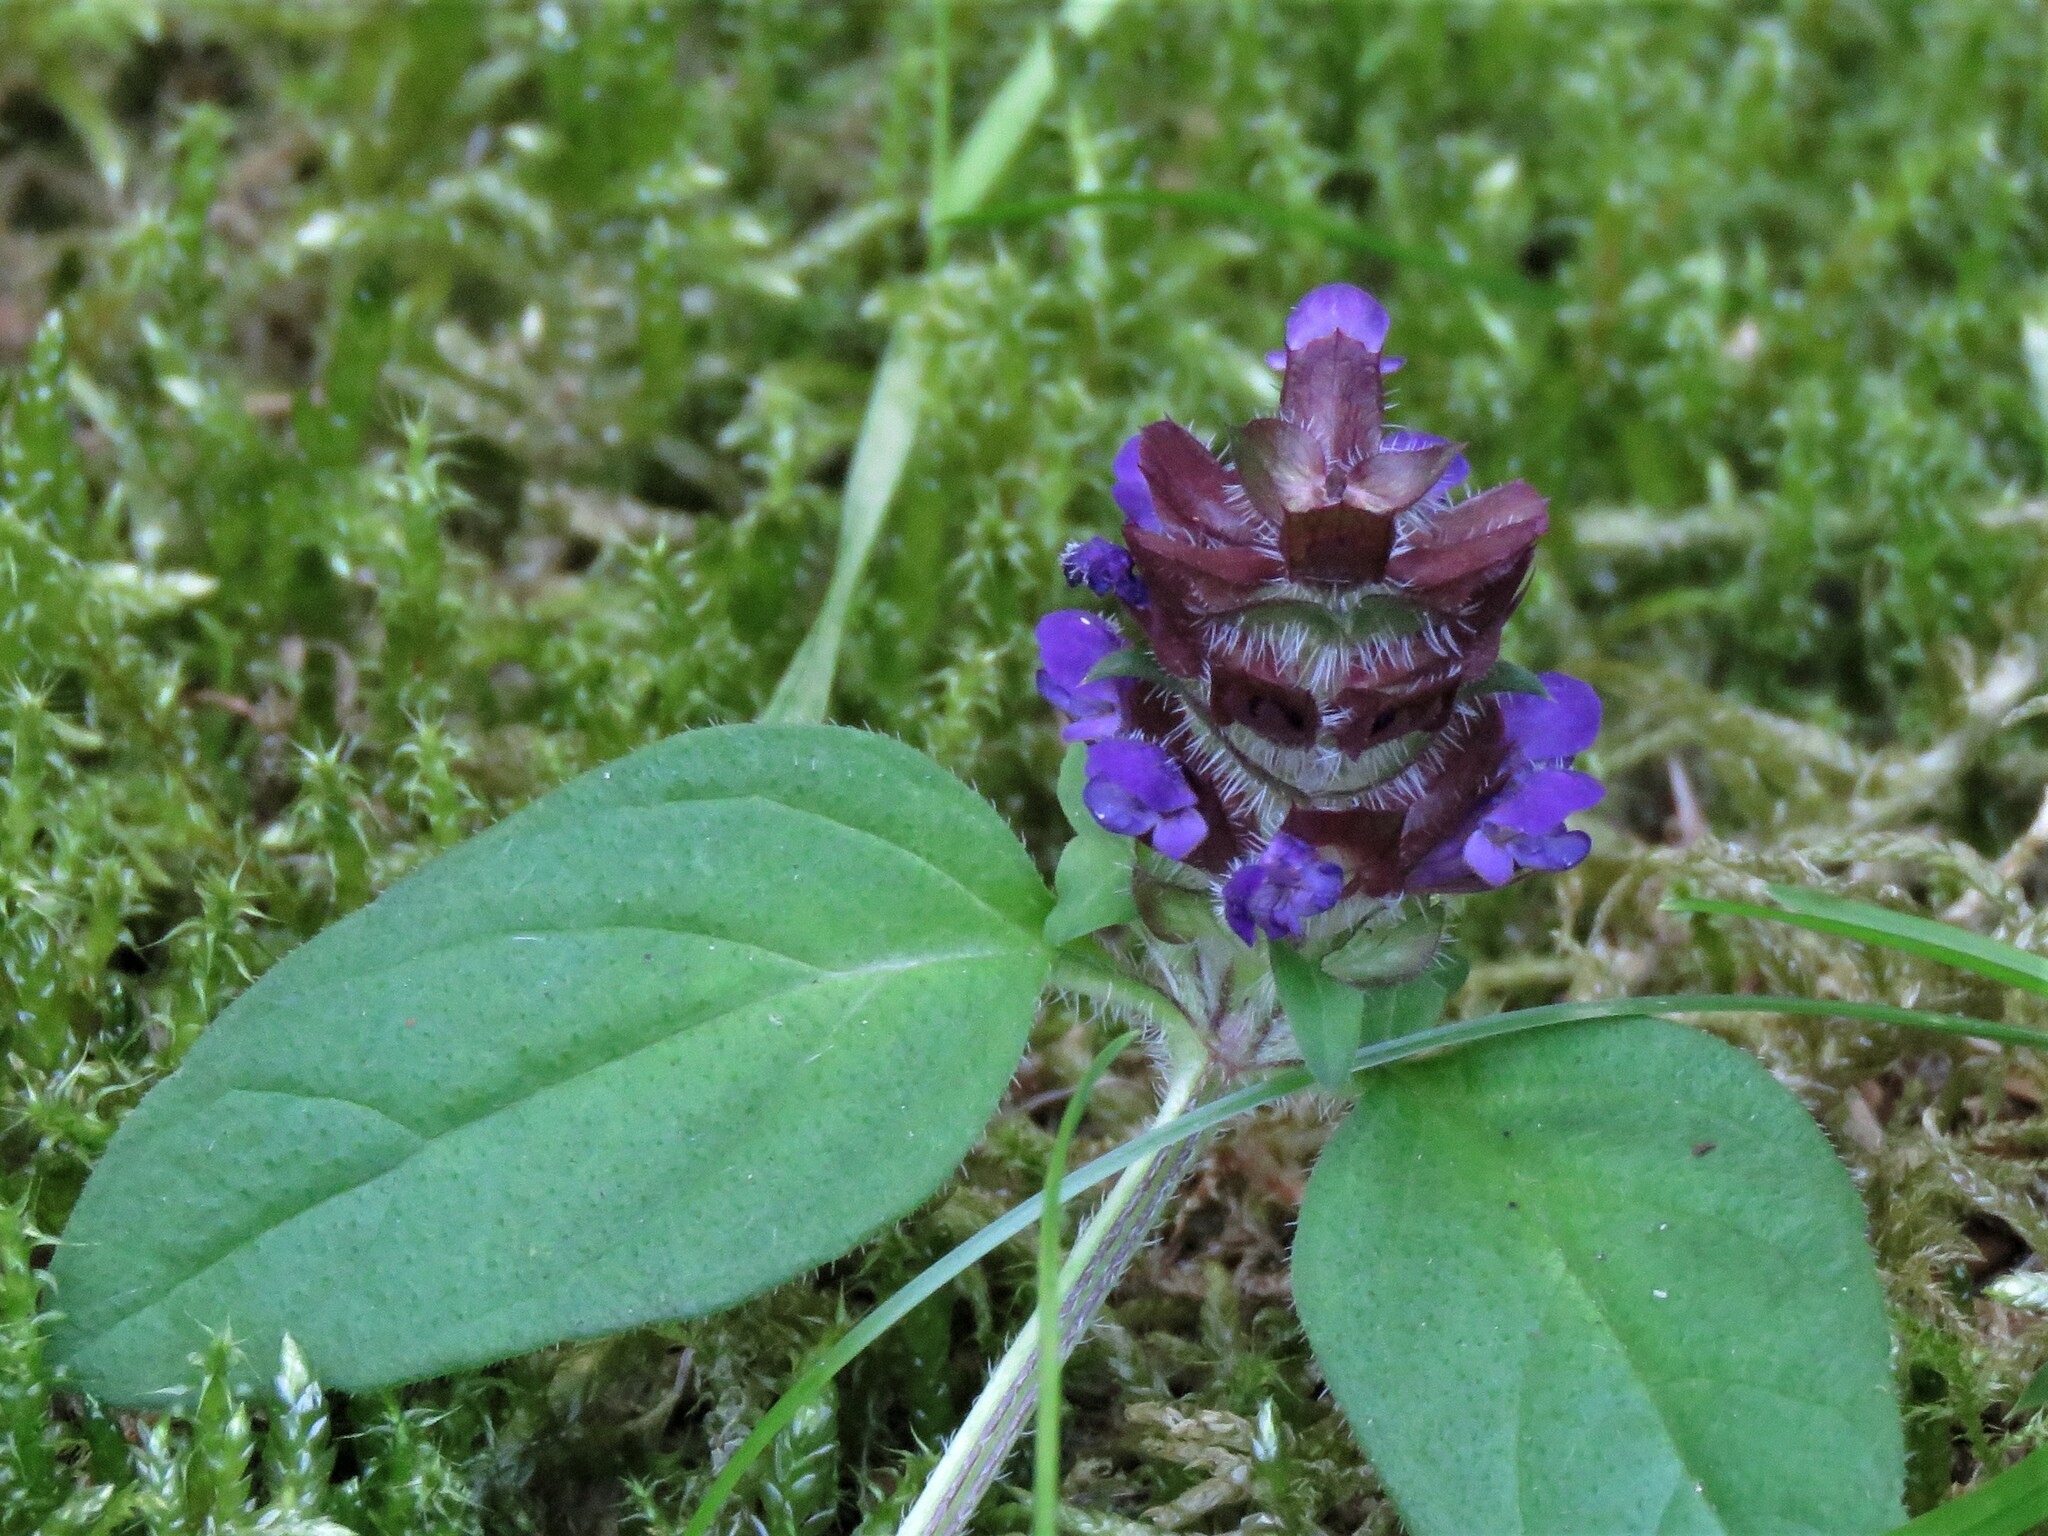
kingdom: Plantae
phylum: Tracheophyta
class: Magnoliopsida
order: Lamiales
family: Lamiaceae
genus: Prunella
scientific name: Prunella vulgaris
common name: Heal-all
